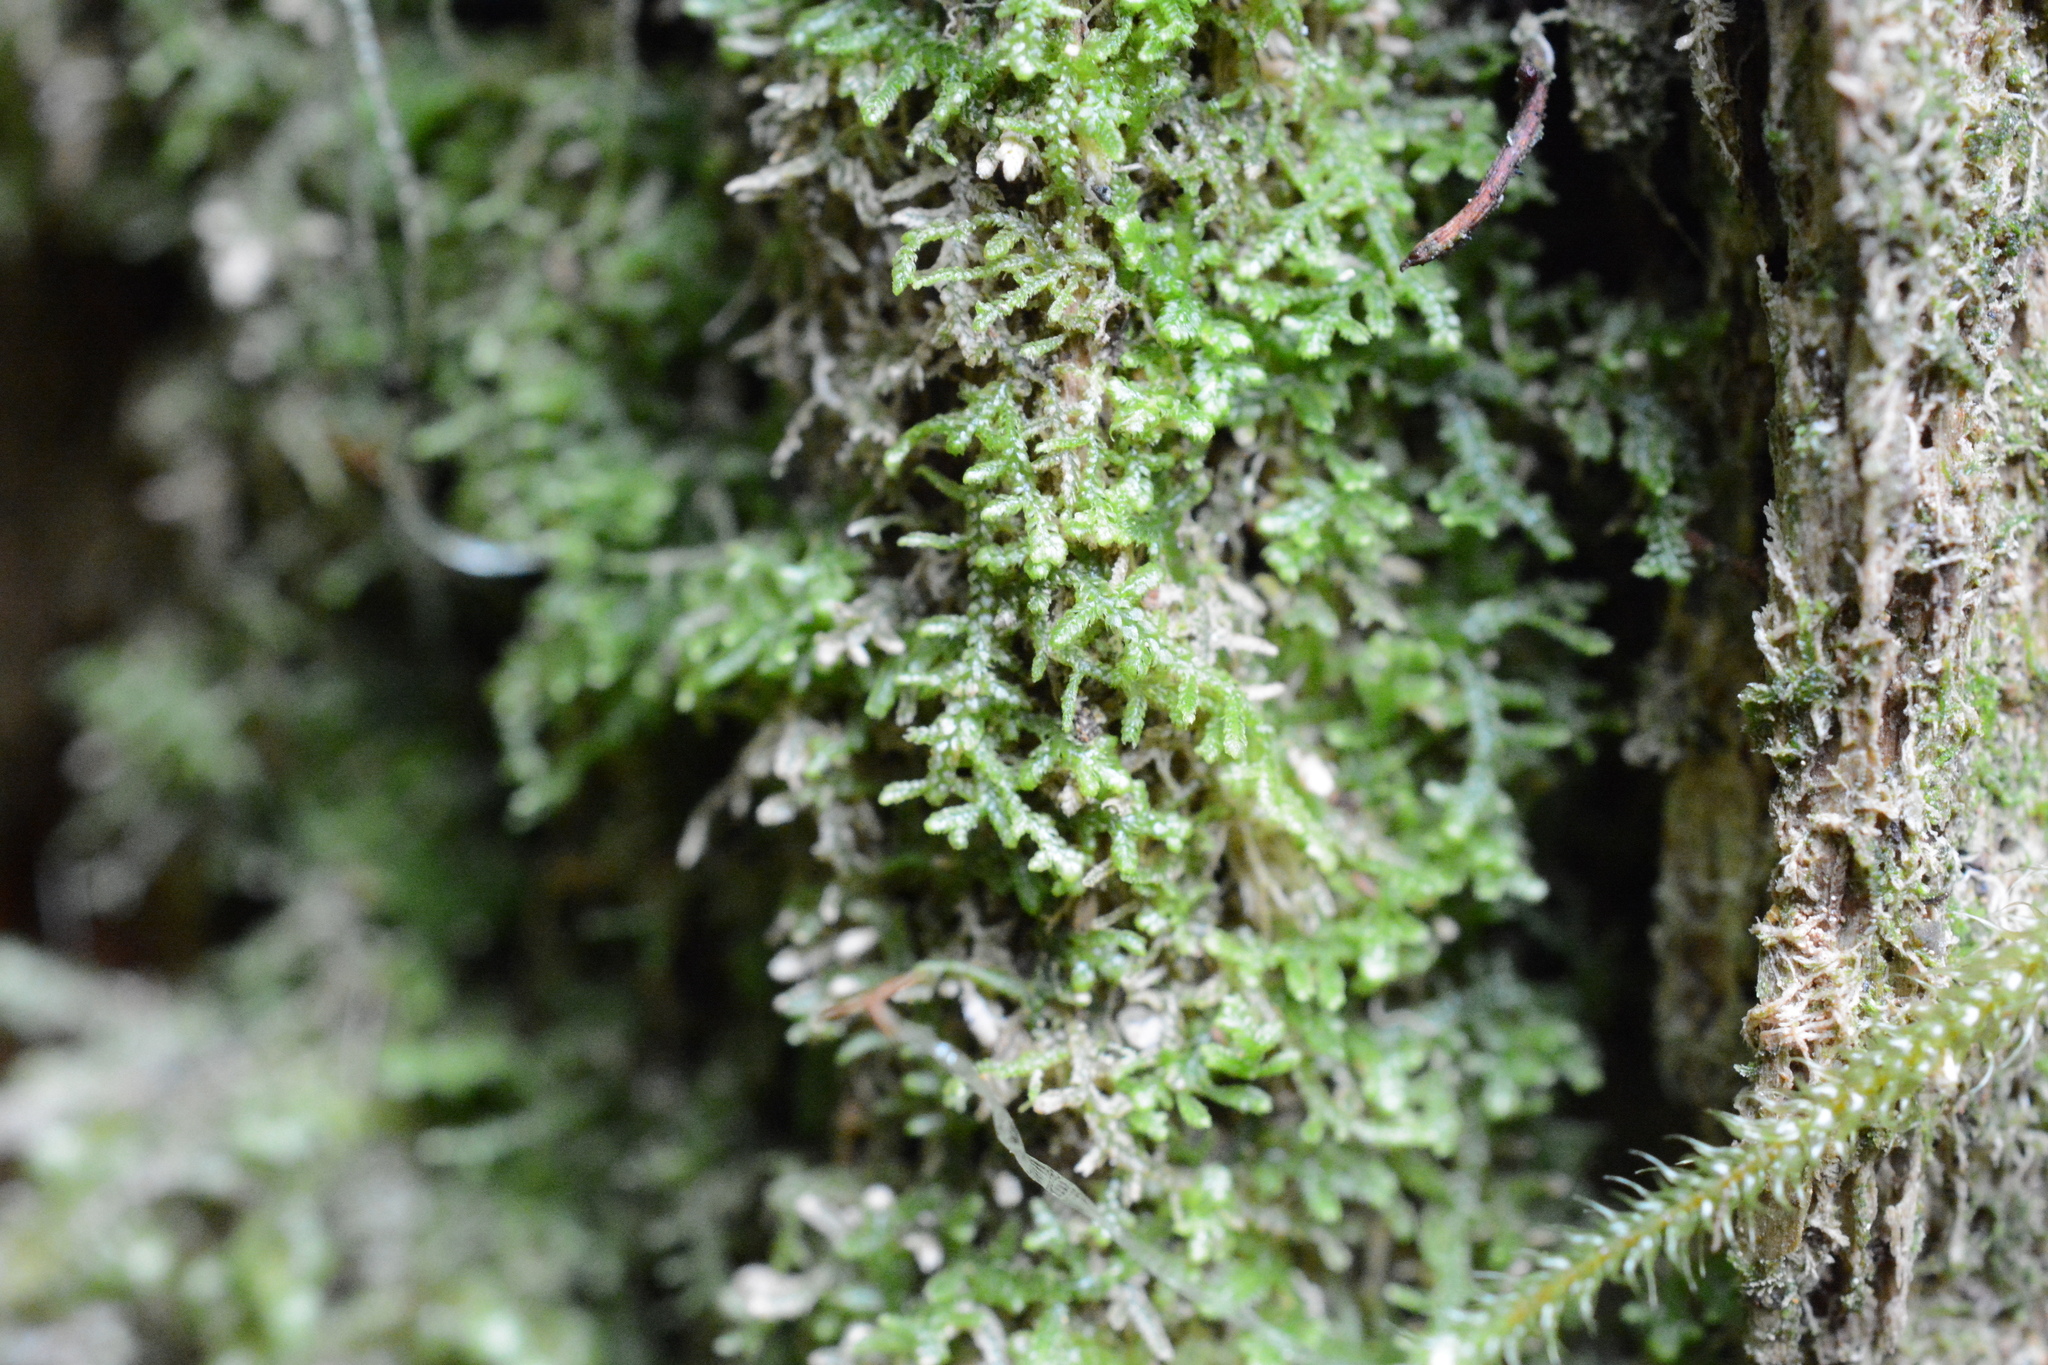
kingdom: Plantae
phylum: Marchantiophyta
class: Jungermanniopsida
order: Jungermanniales
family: Lepidoziaceae
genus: Lepidozia
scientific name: Lepidozia reptans
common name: Creeping fingerwort
